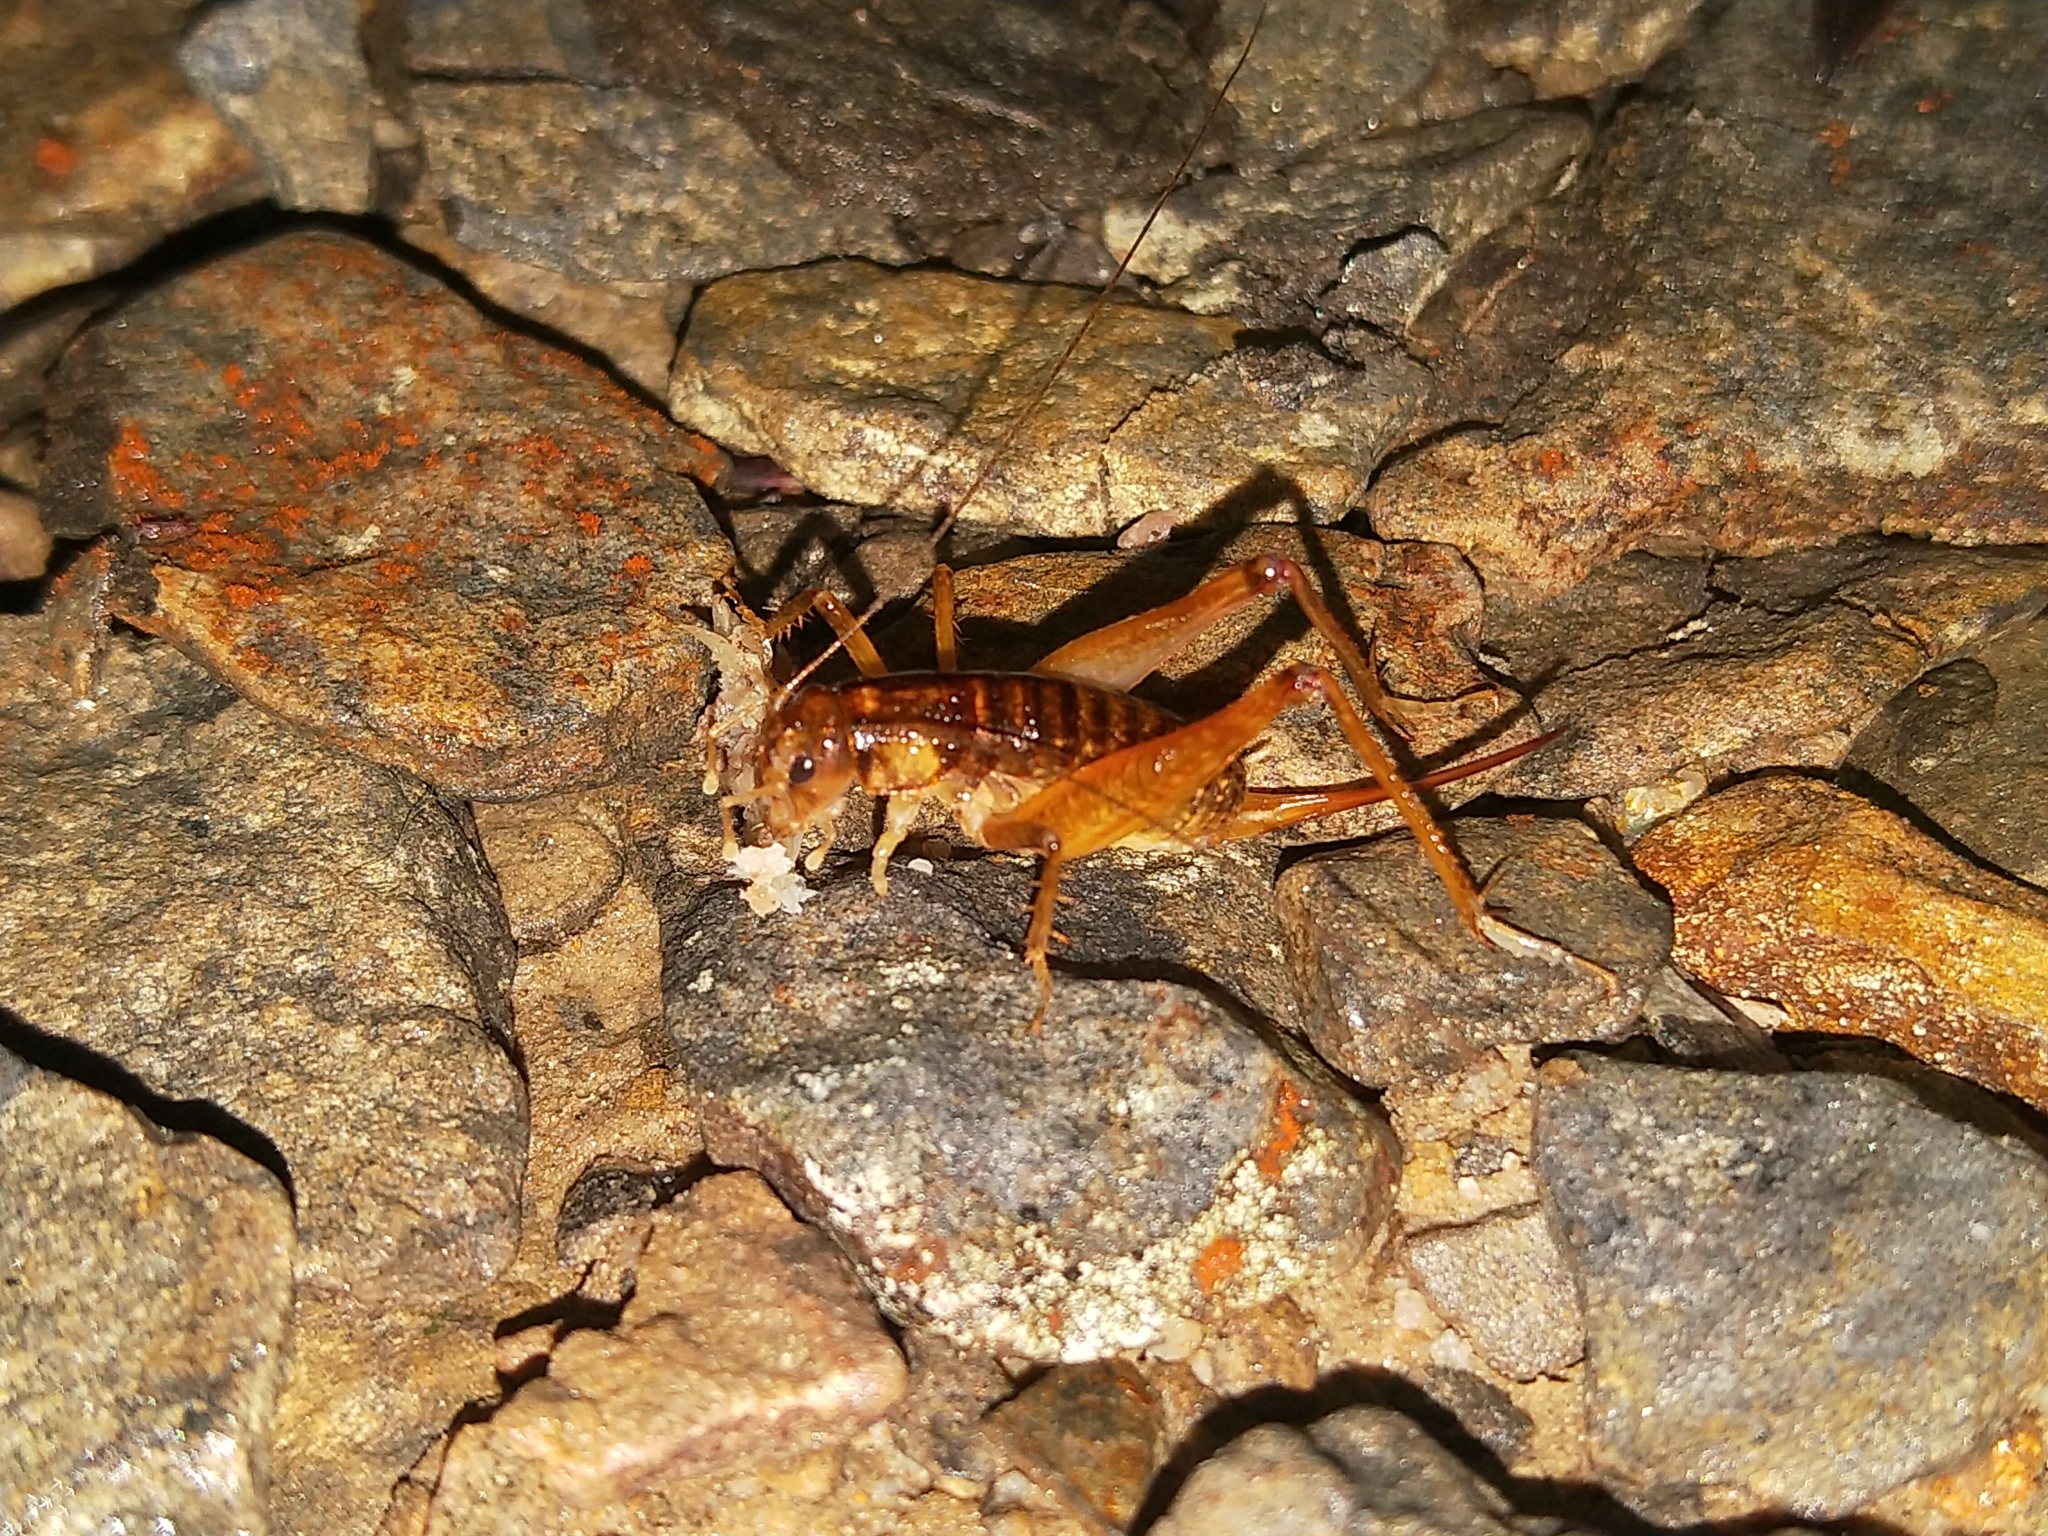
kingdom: Animalia
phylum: Arthropoda
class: Insecta
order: Orthoptera
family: Anostostomatidae
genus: Hemiandrus
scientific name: Hemiandrus maculifrons
